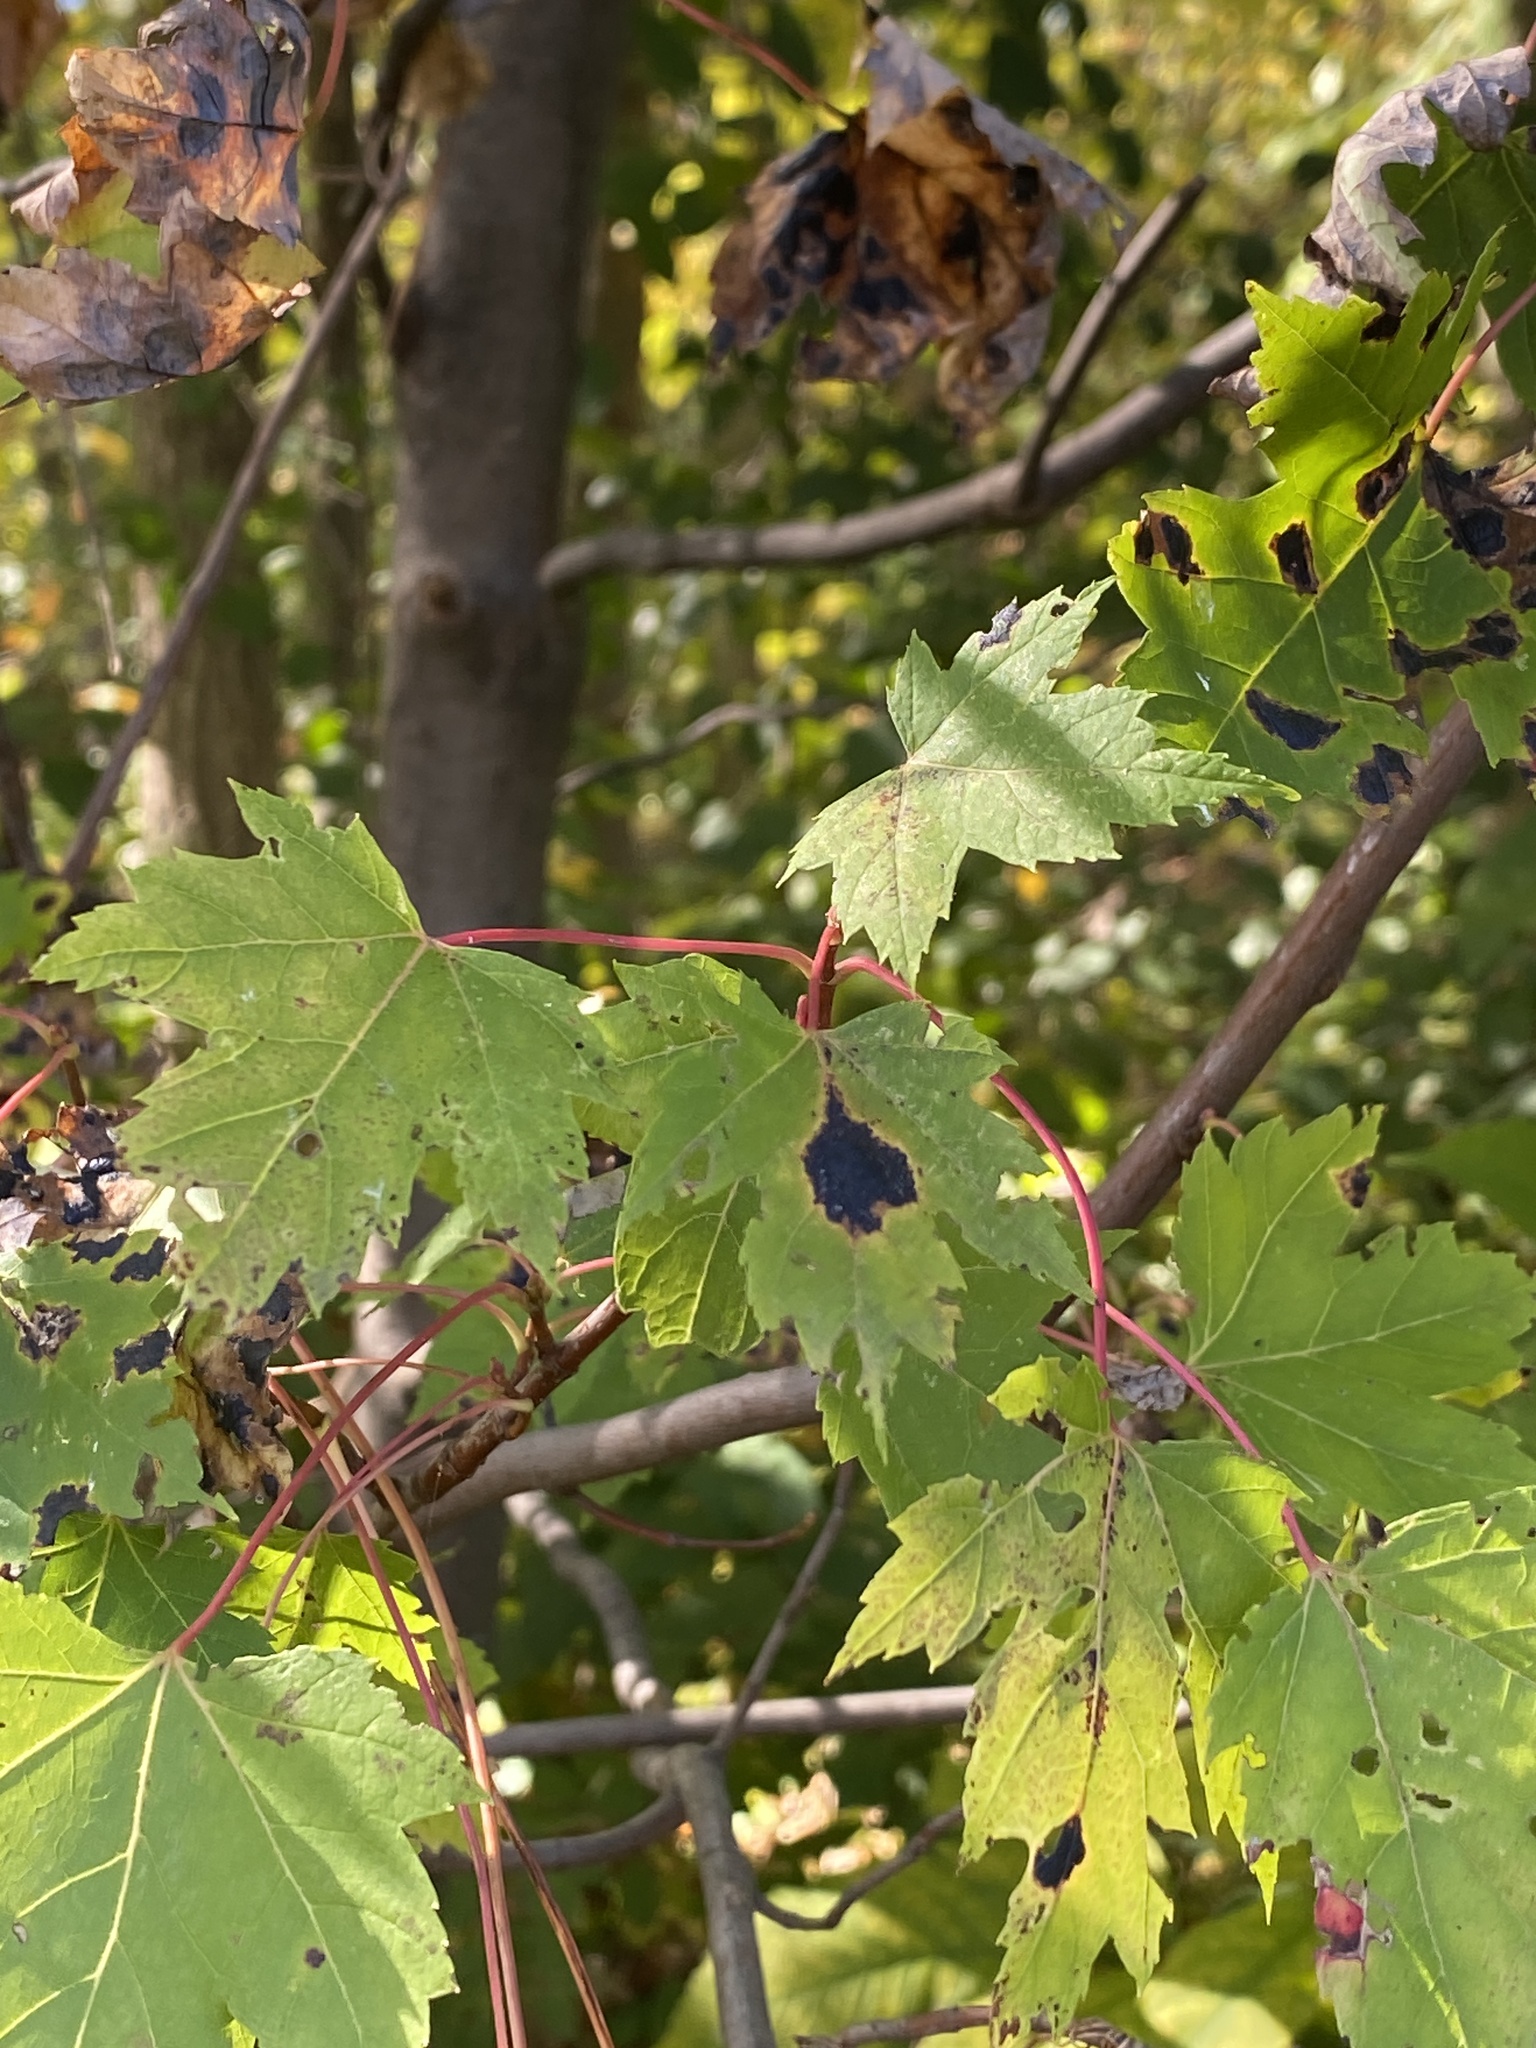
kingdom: Fungi
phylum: Ascomycota
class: Leotiomycetes
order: Rhytismatales
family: Rhytismataceae
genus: Rhytisma
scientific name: Rhytisma americanum
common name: American tar spot
